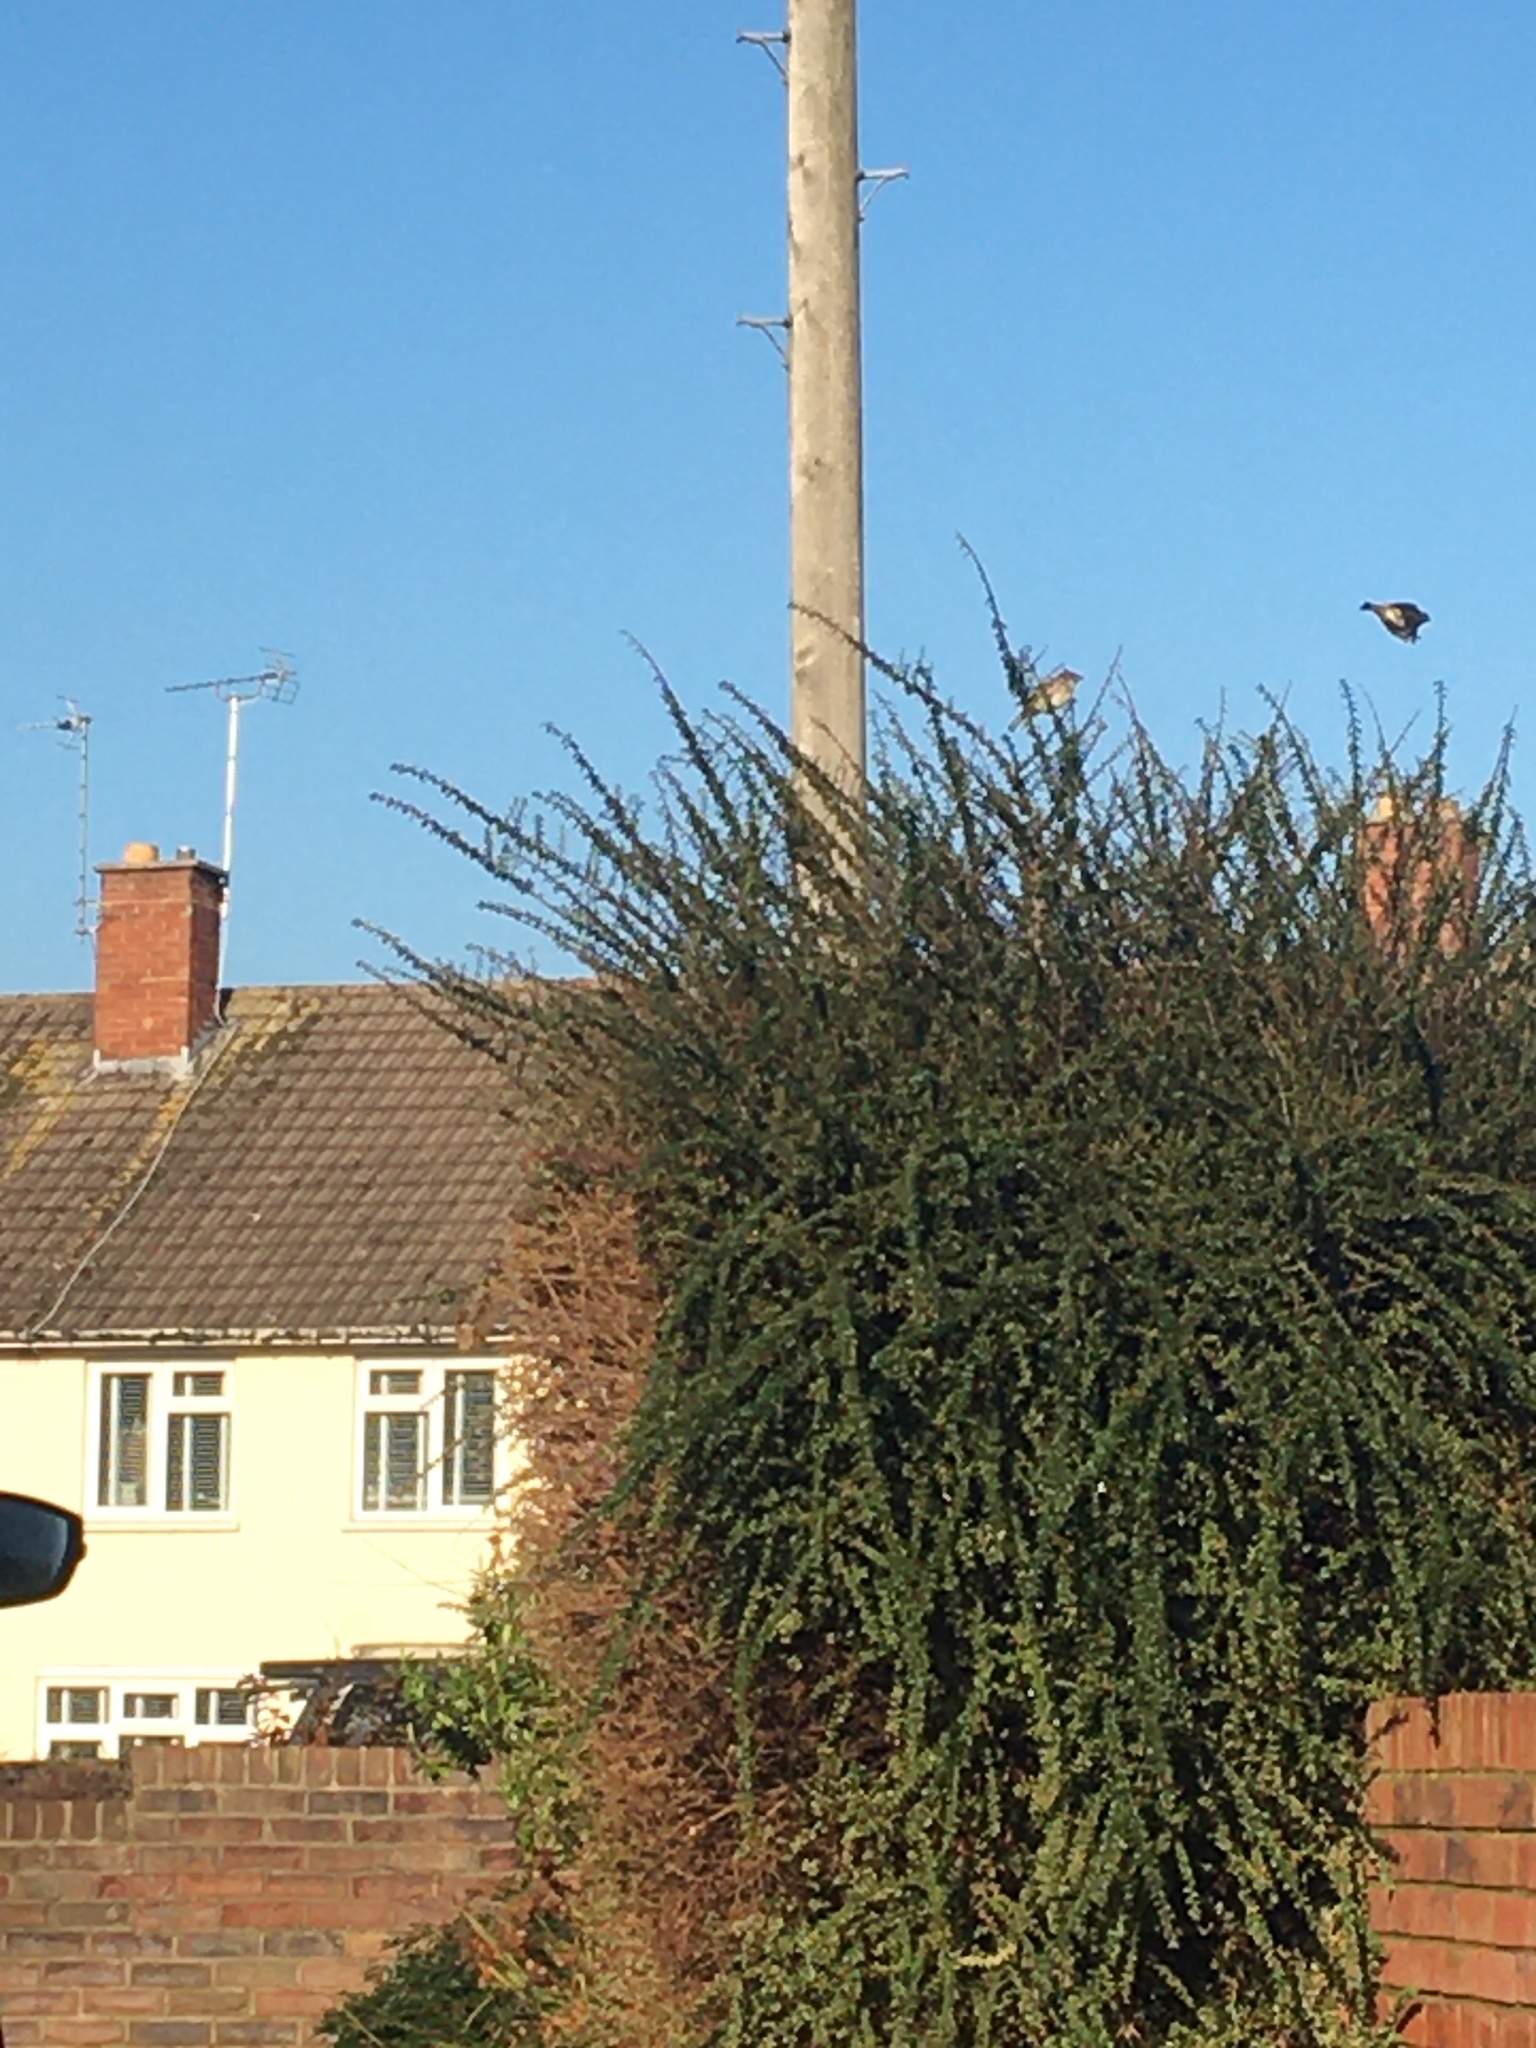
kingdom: Animalia
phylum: Chordata
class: Aves
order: Passeriformes
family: Passeridae
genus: Passer
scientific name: Passer
